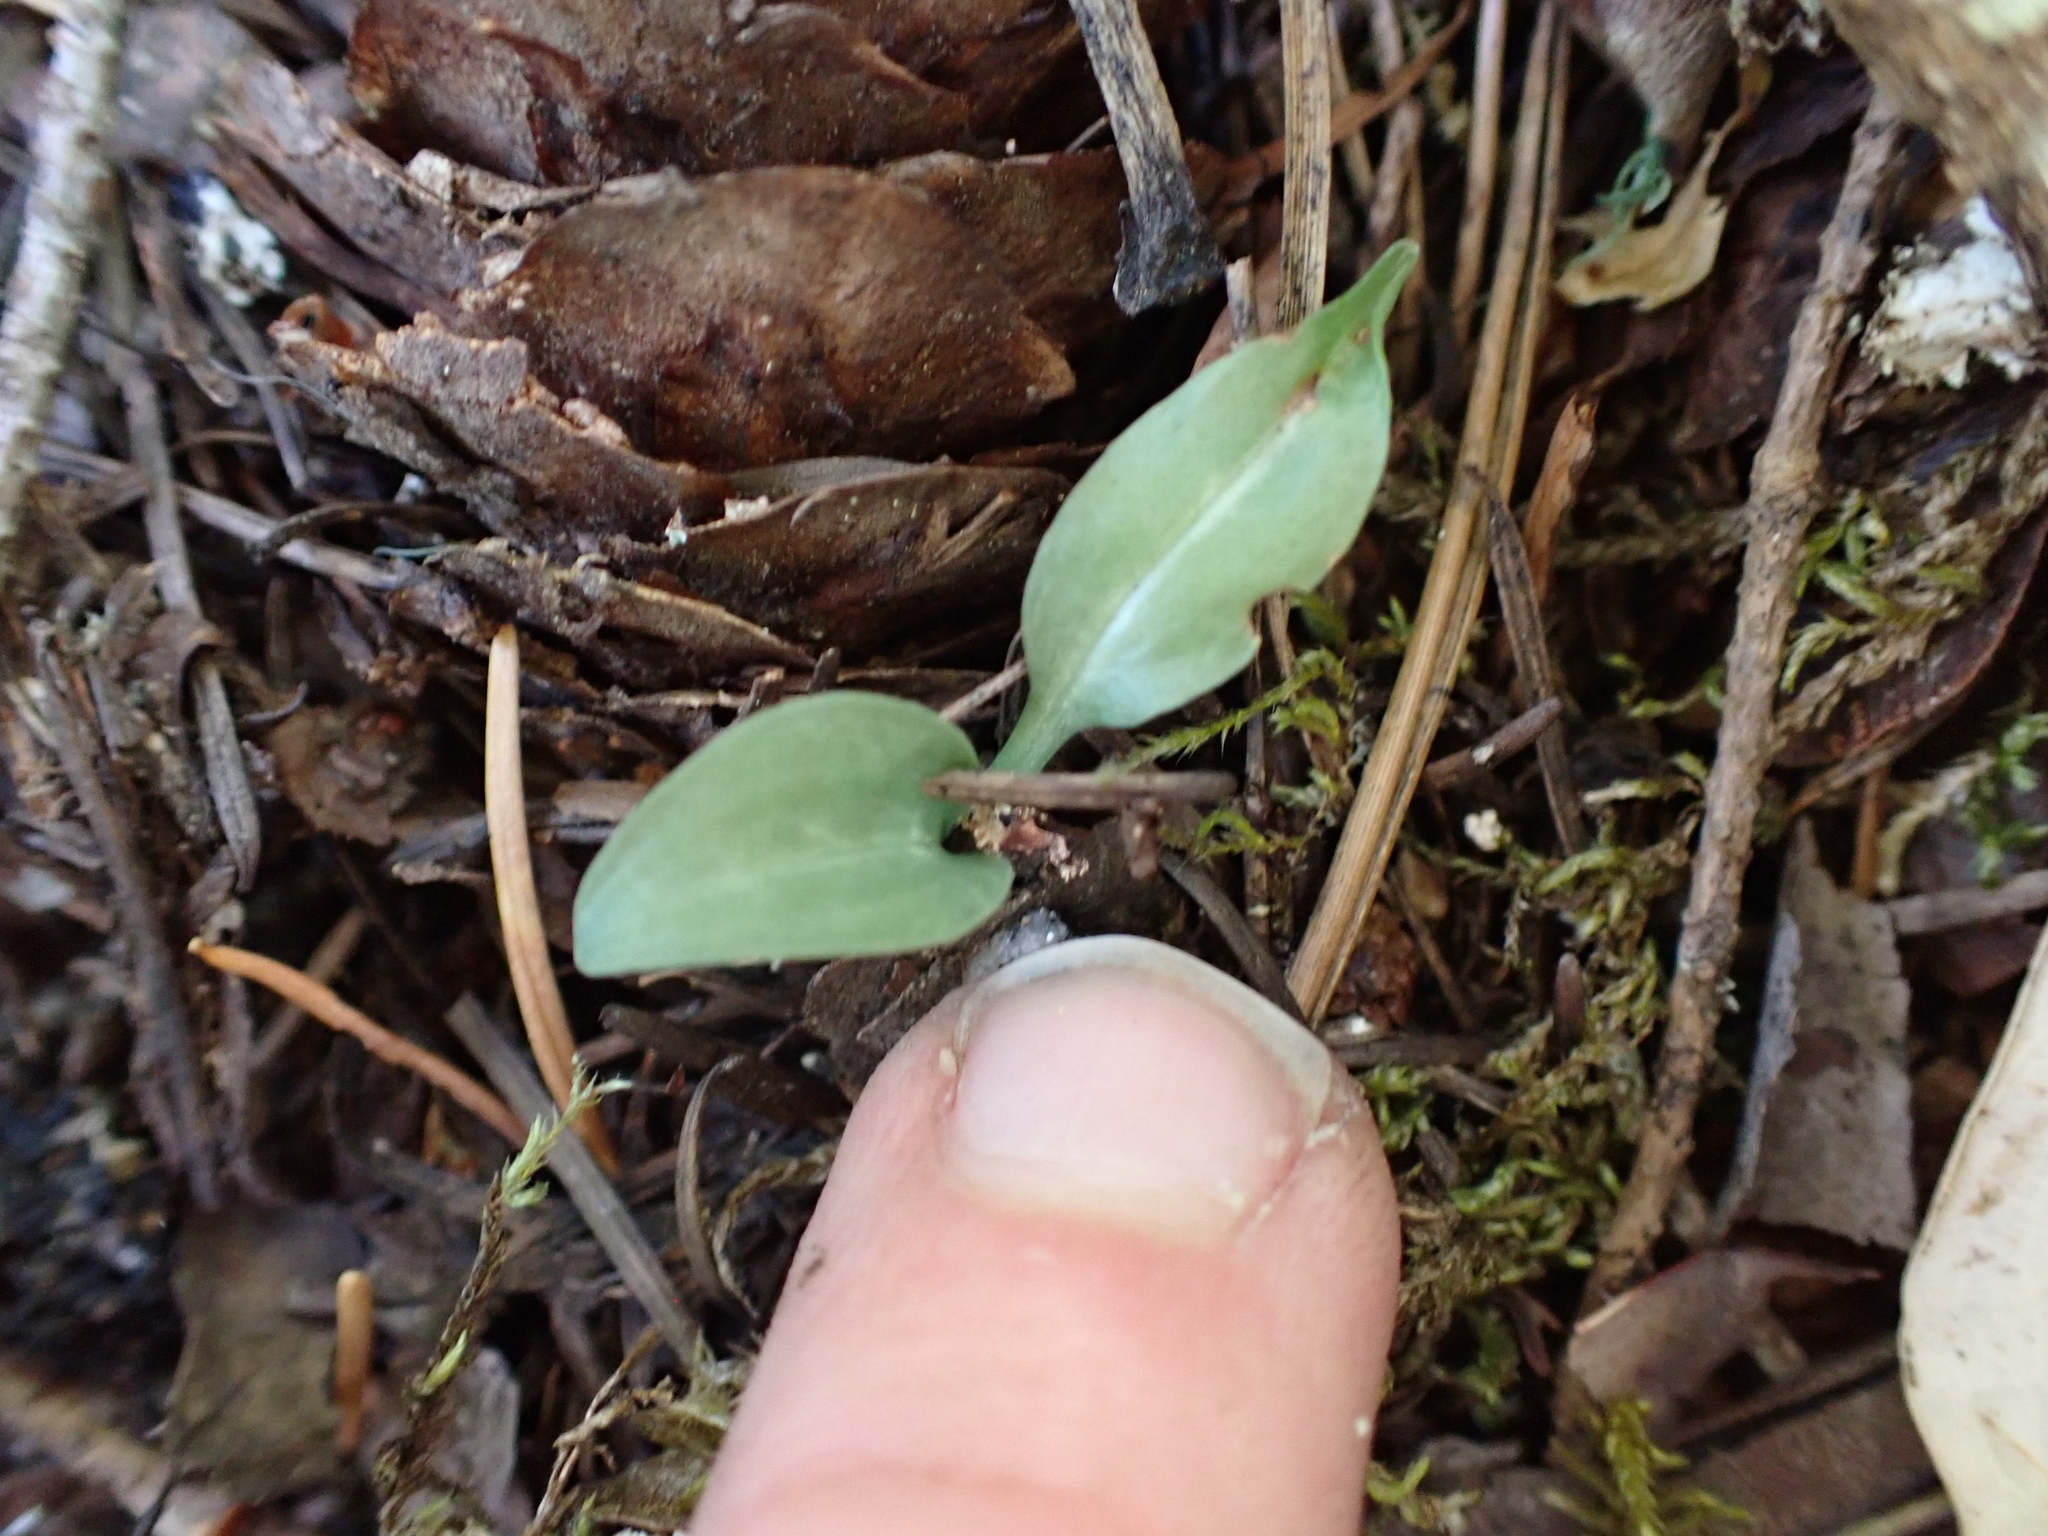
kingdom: Plantae
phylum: Tracheophyta
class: Liliopsida
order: Asparagales
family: Orchidaceae
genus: Goodyera
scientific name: Goodyera oblongifolia
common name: Giant rattlesnake-plantain
